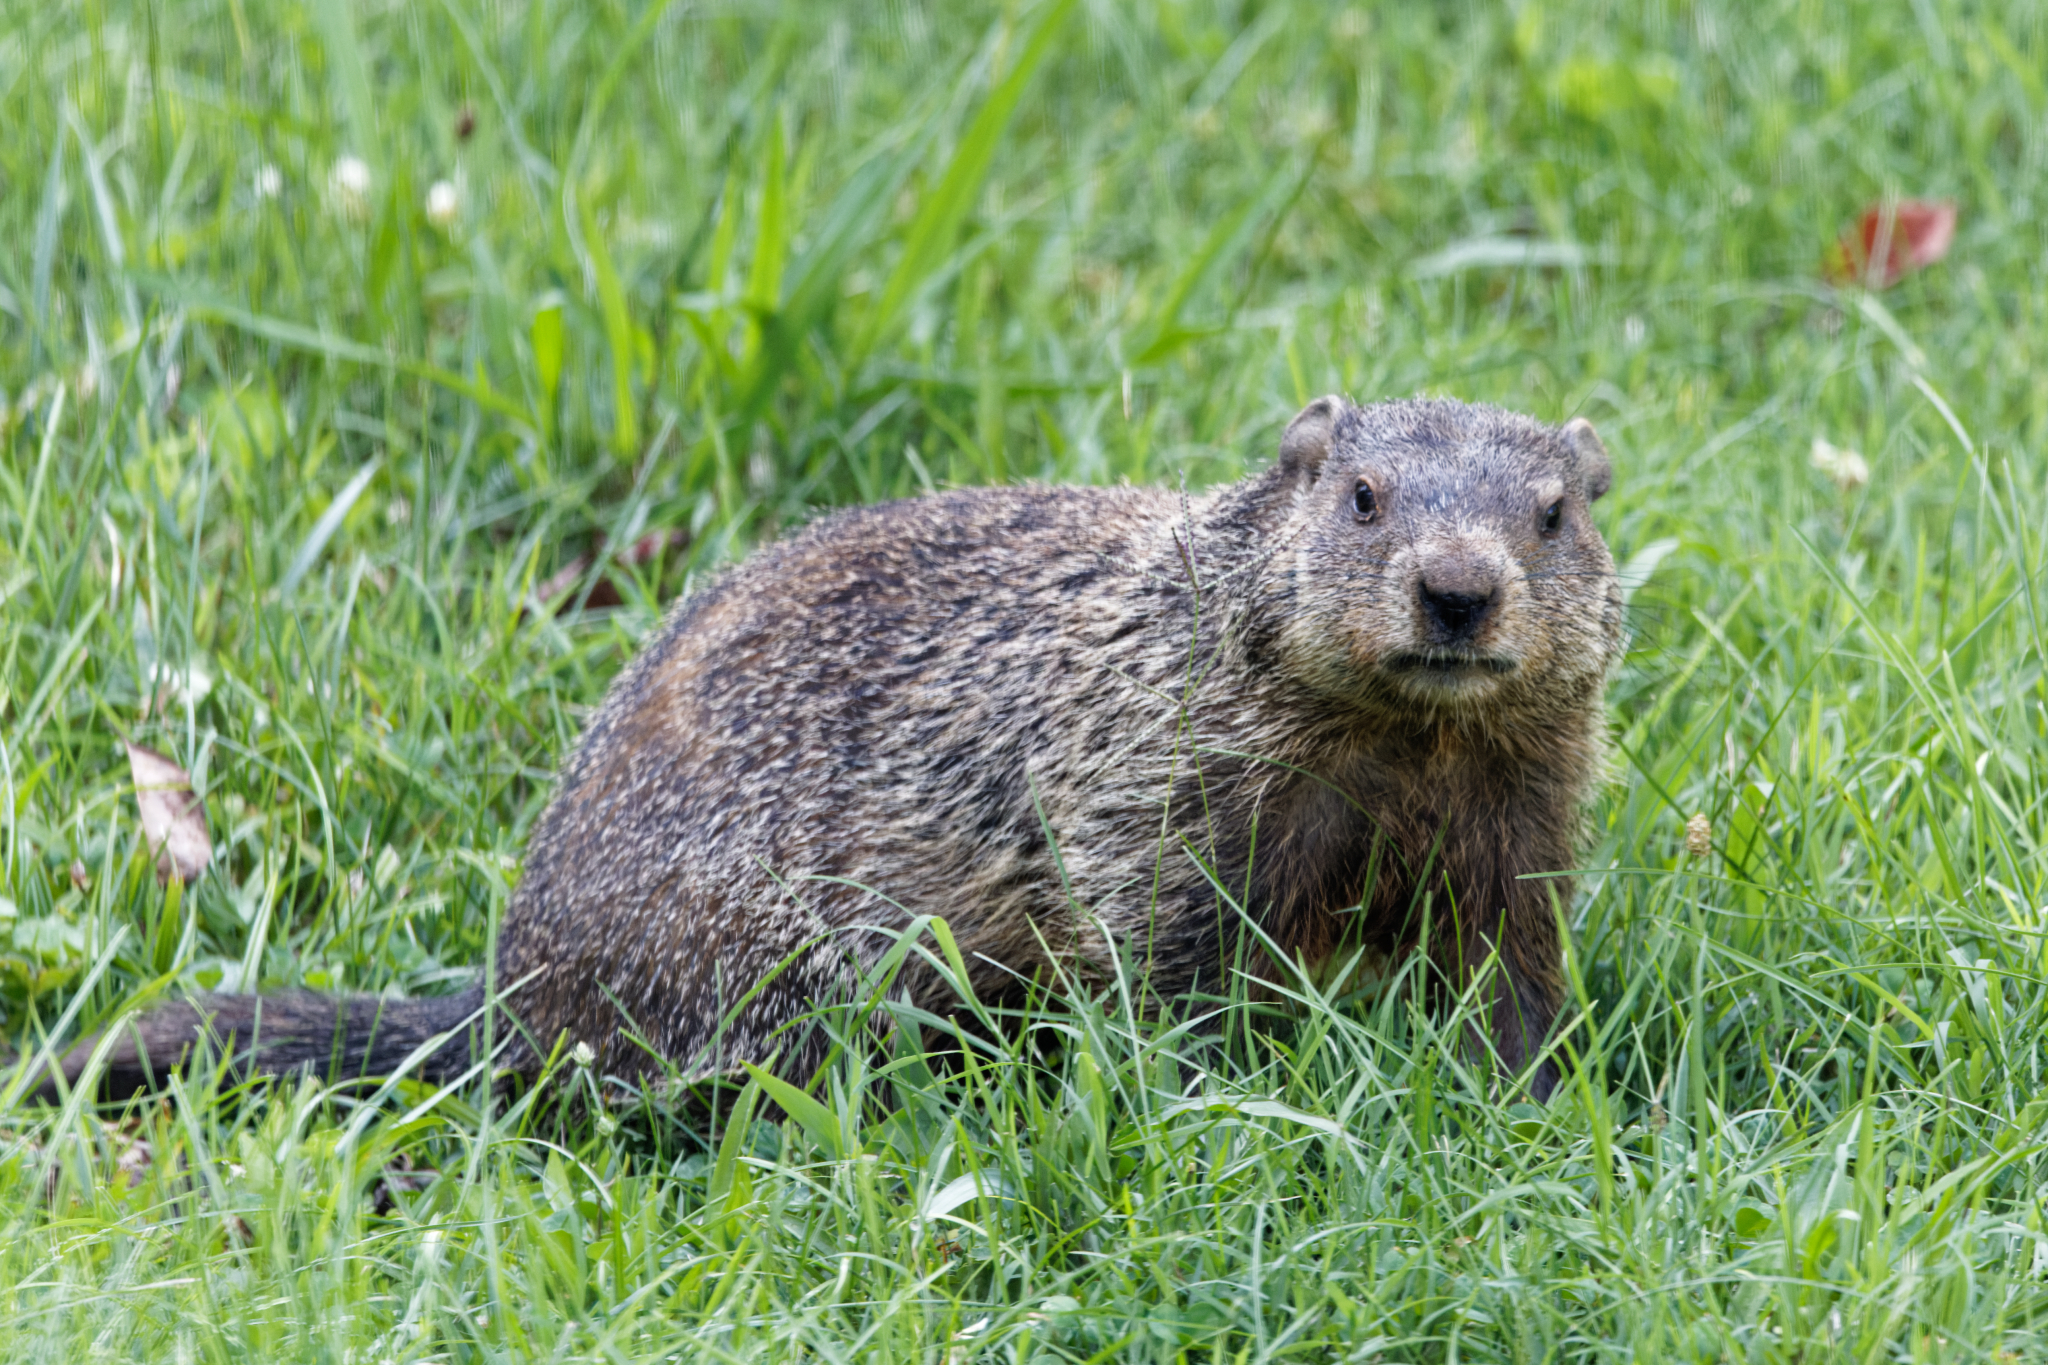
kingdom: Animalia
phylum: Chordata
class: Mammalia
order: Rodentia
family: Sciuridae
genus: Marmota
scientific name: Marmota monax
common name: Groundhog
